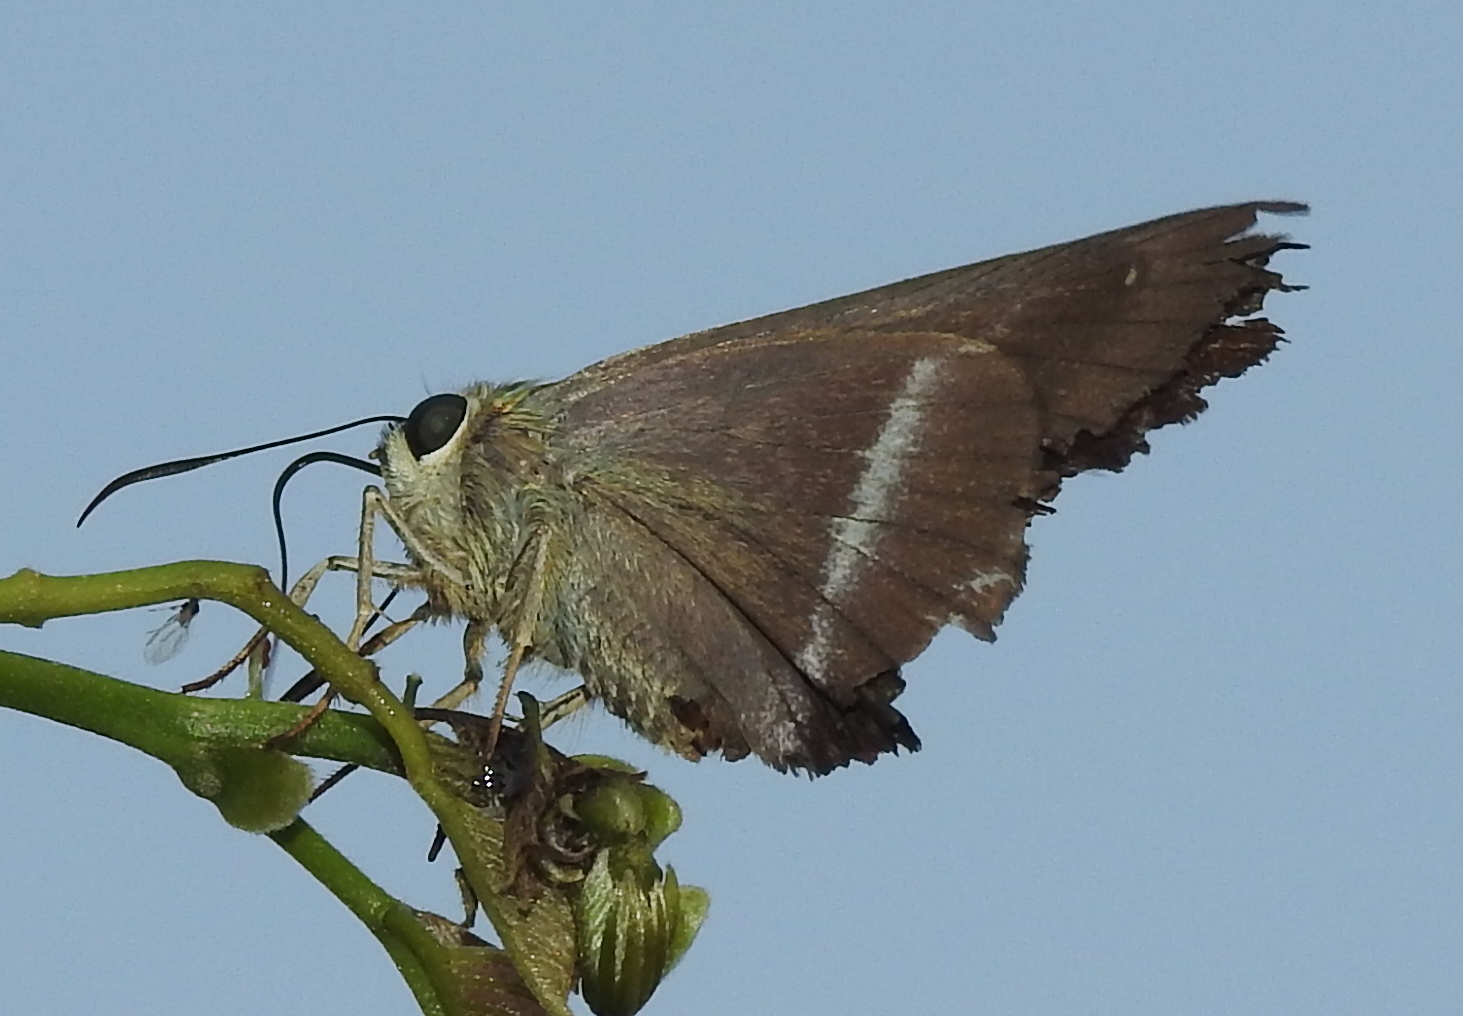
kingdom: Animalia
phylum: Arthropoda
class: Insecta
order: Lepidoptera
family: Hesperiidae
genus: Hasora
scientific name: Hasora chromus
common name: Common banded awl
